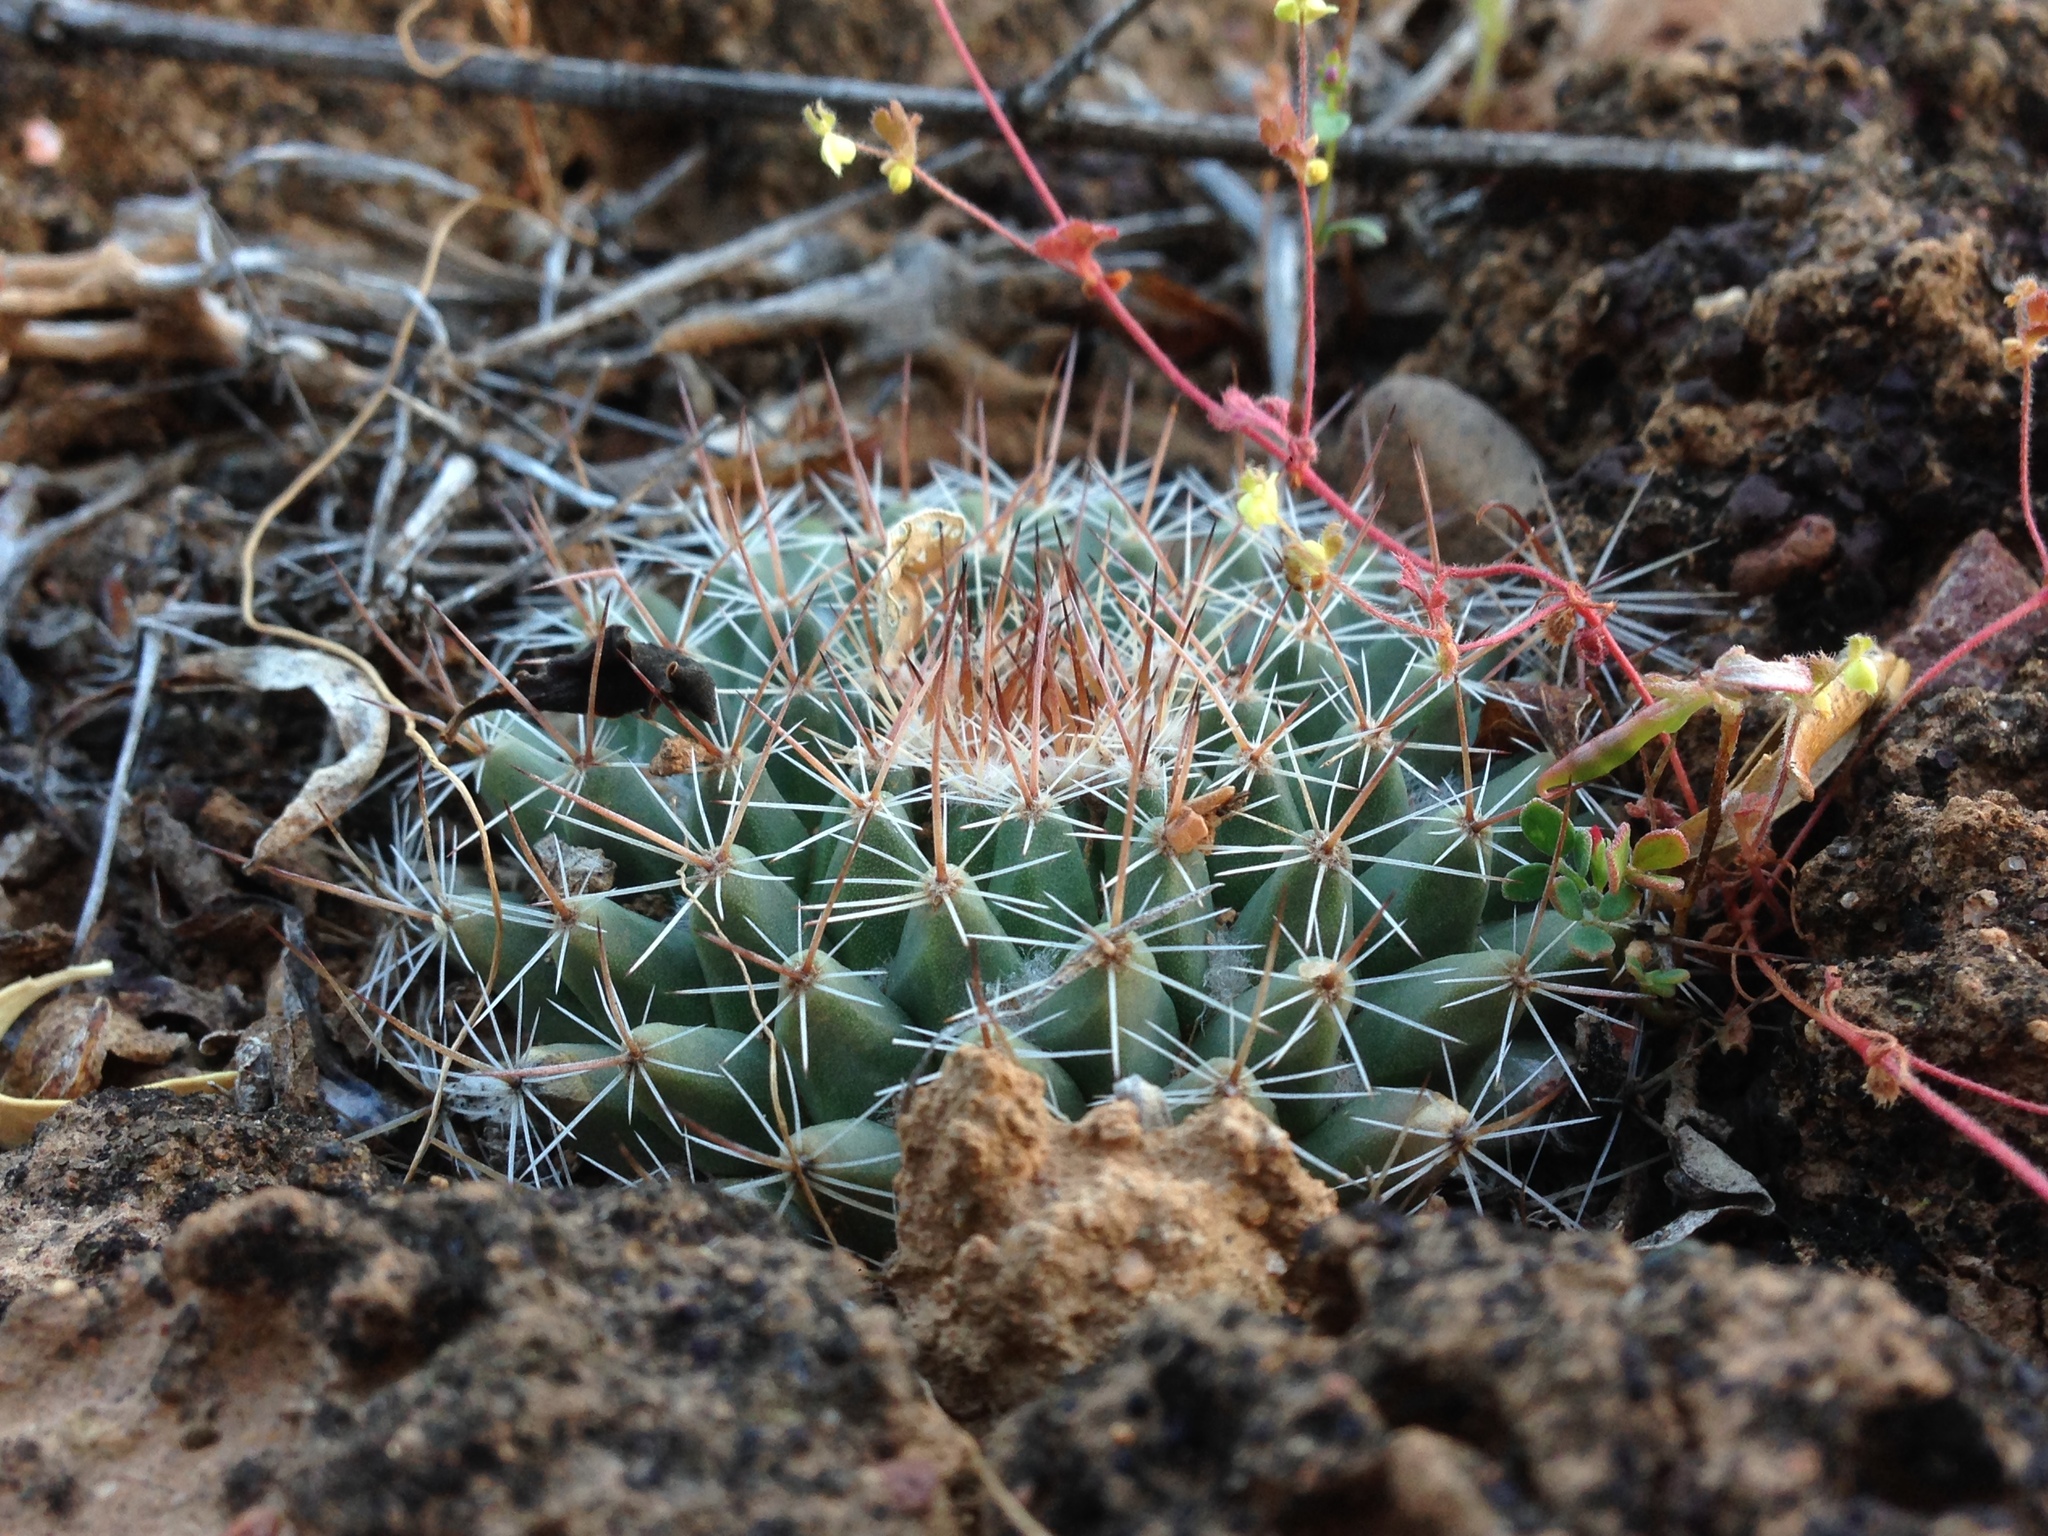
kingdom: Plantae
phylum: Tracheophyta
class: Magnoliopsida
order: Caryophyllales
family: Cactaceae
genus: Mammillaria
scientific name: Mammillaria brandegeei
